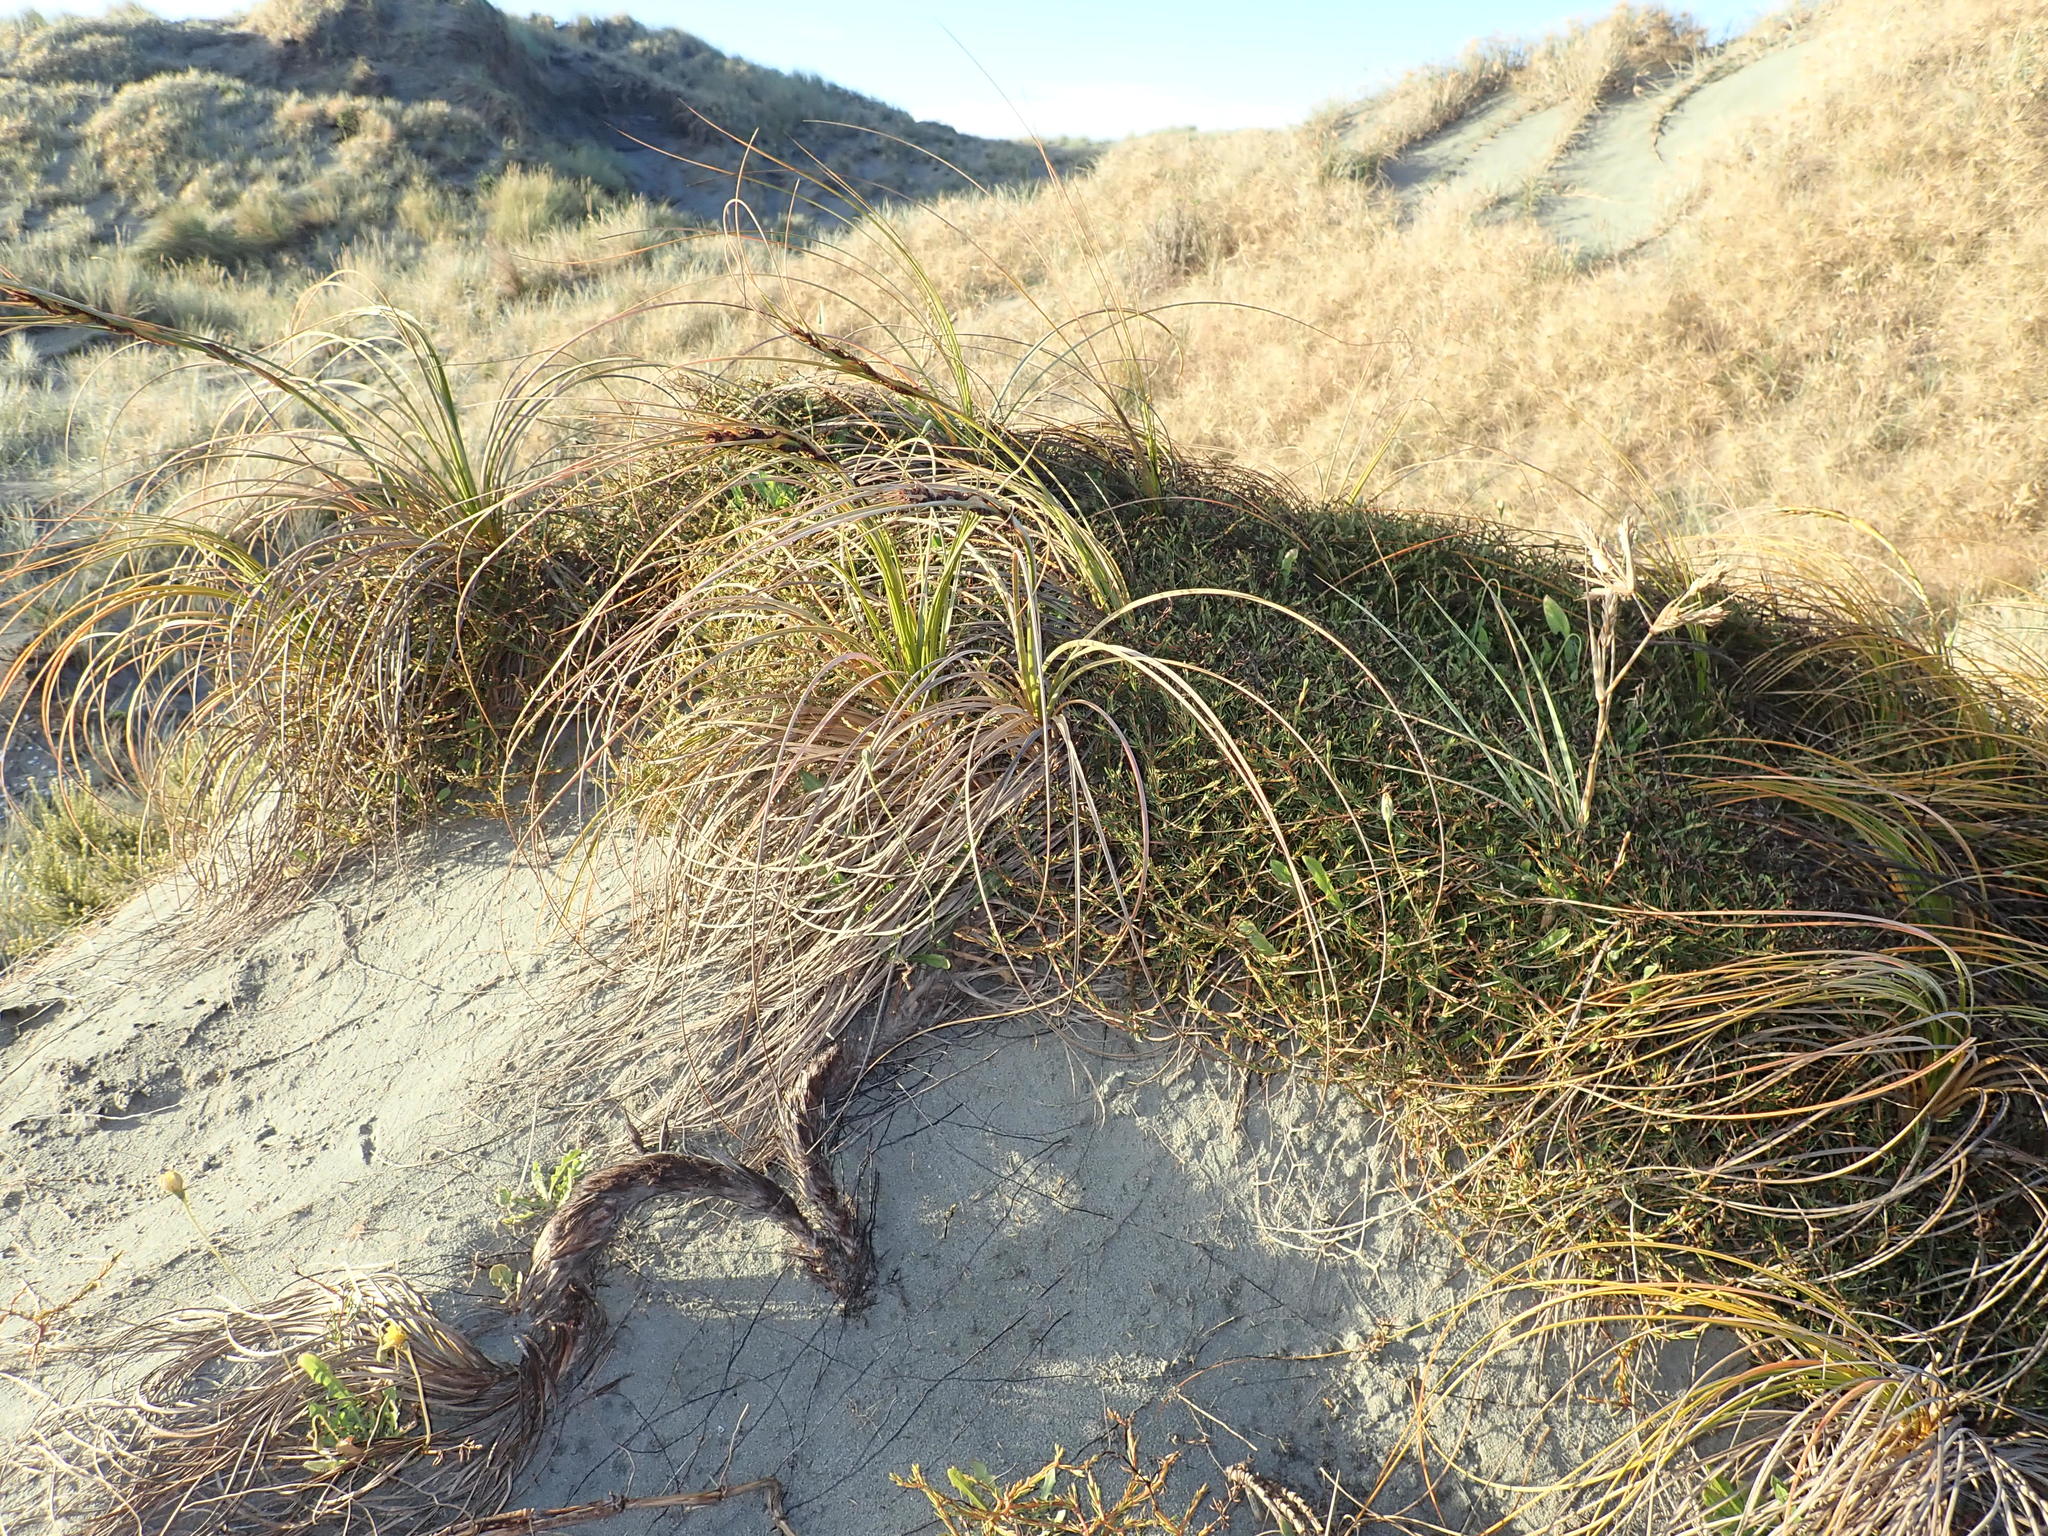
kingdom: Plantae
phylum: Tracheophyta
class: Liliopsida
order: Poales
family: Cyperaceae
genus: Ficinia
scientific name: Ficinia spiralis
